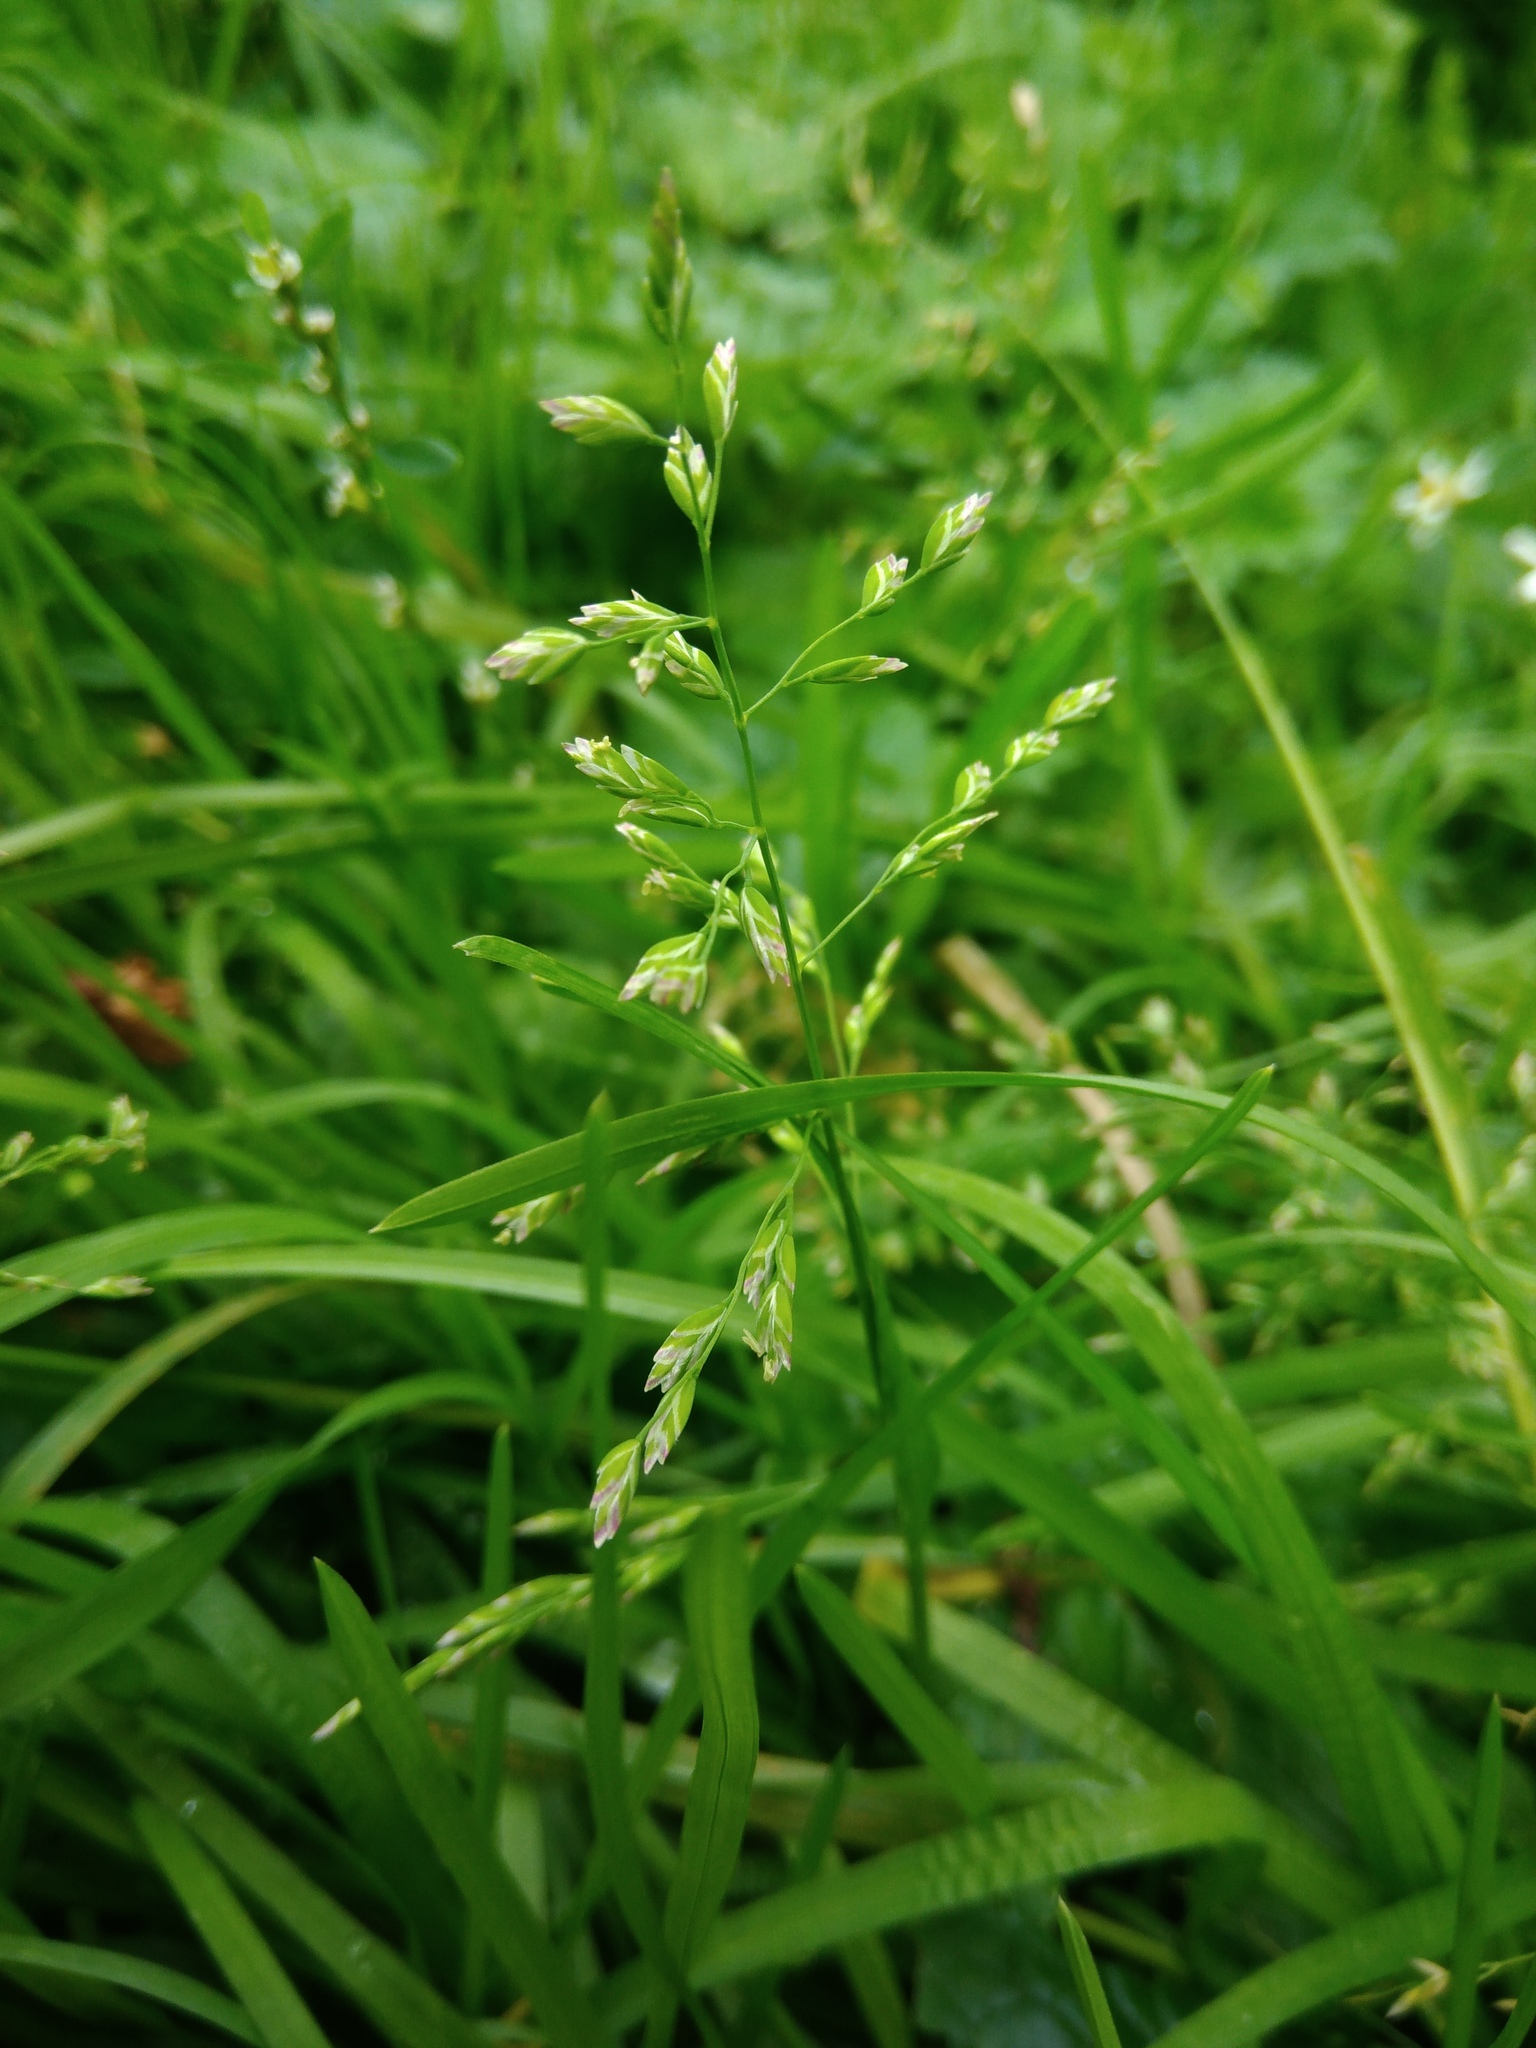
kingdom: Plantae
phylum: Tracheophyta
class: Liliopsida
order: Poales
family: Poaceae
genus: Poa
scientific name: Poa annua
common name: Annual bluegrass
